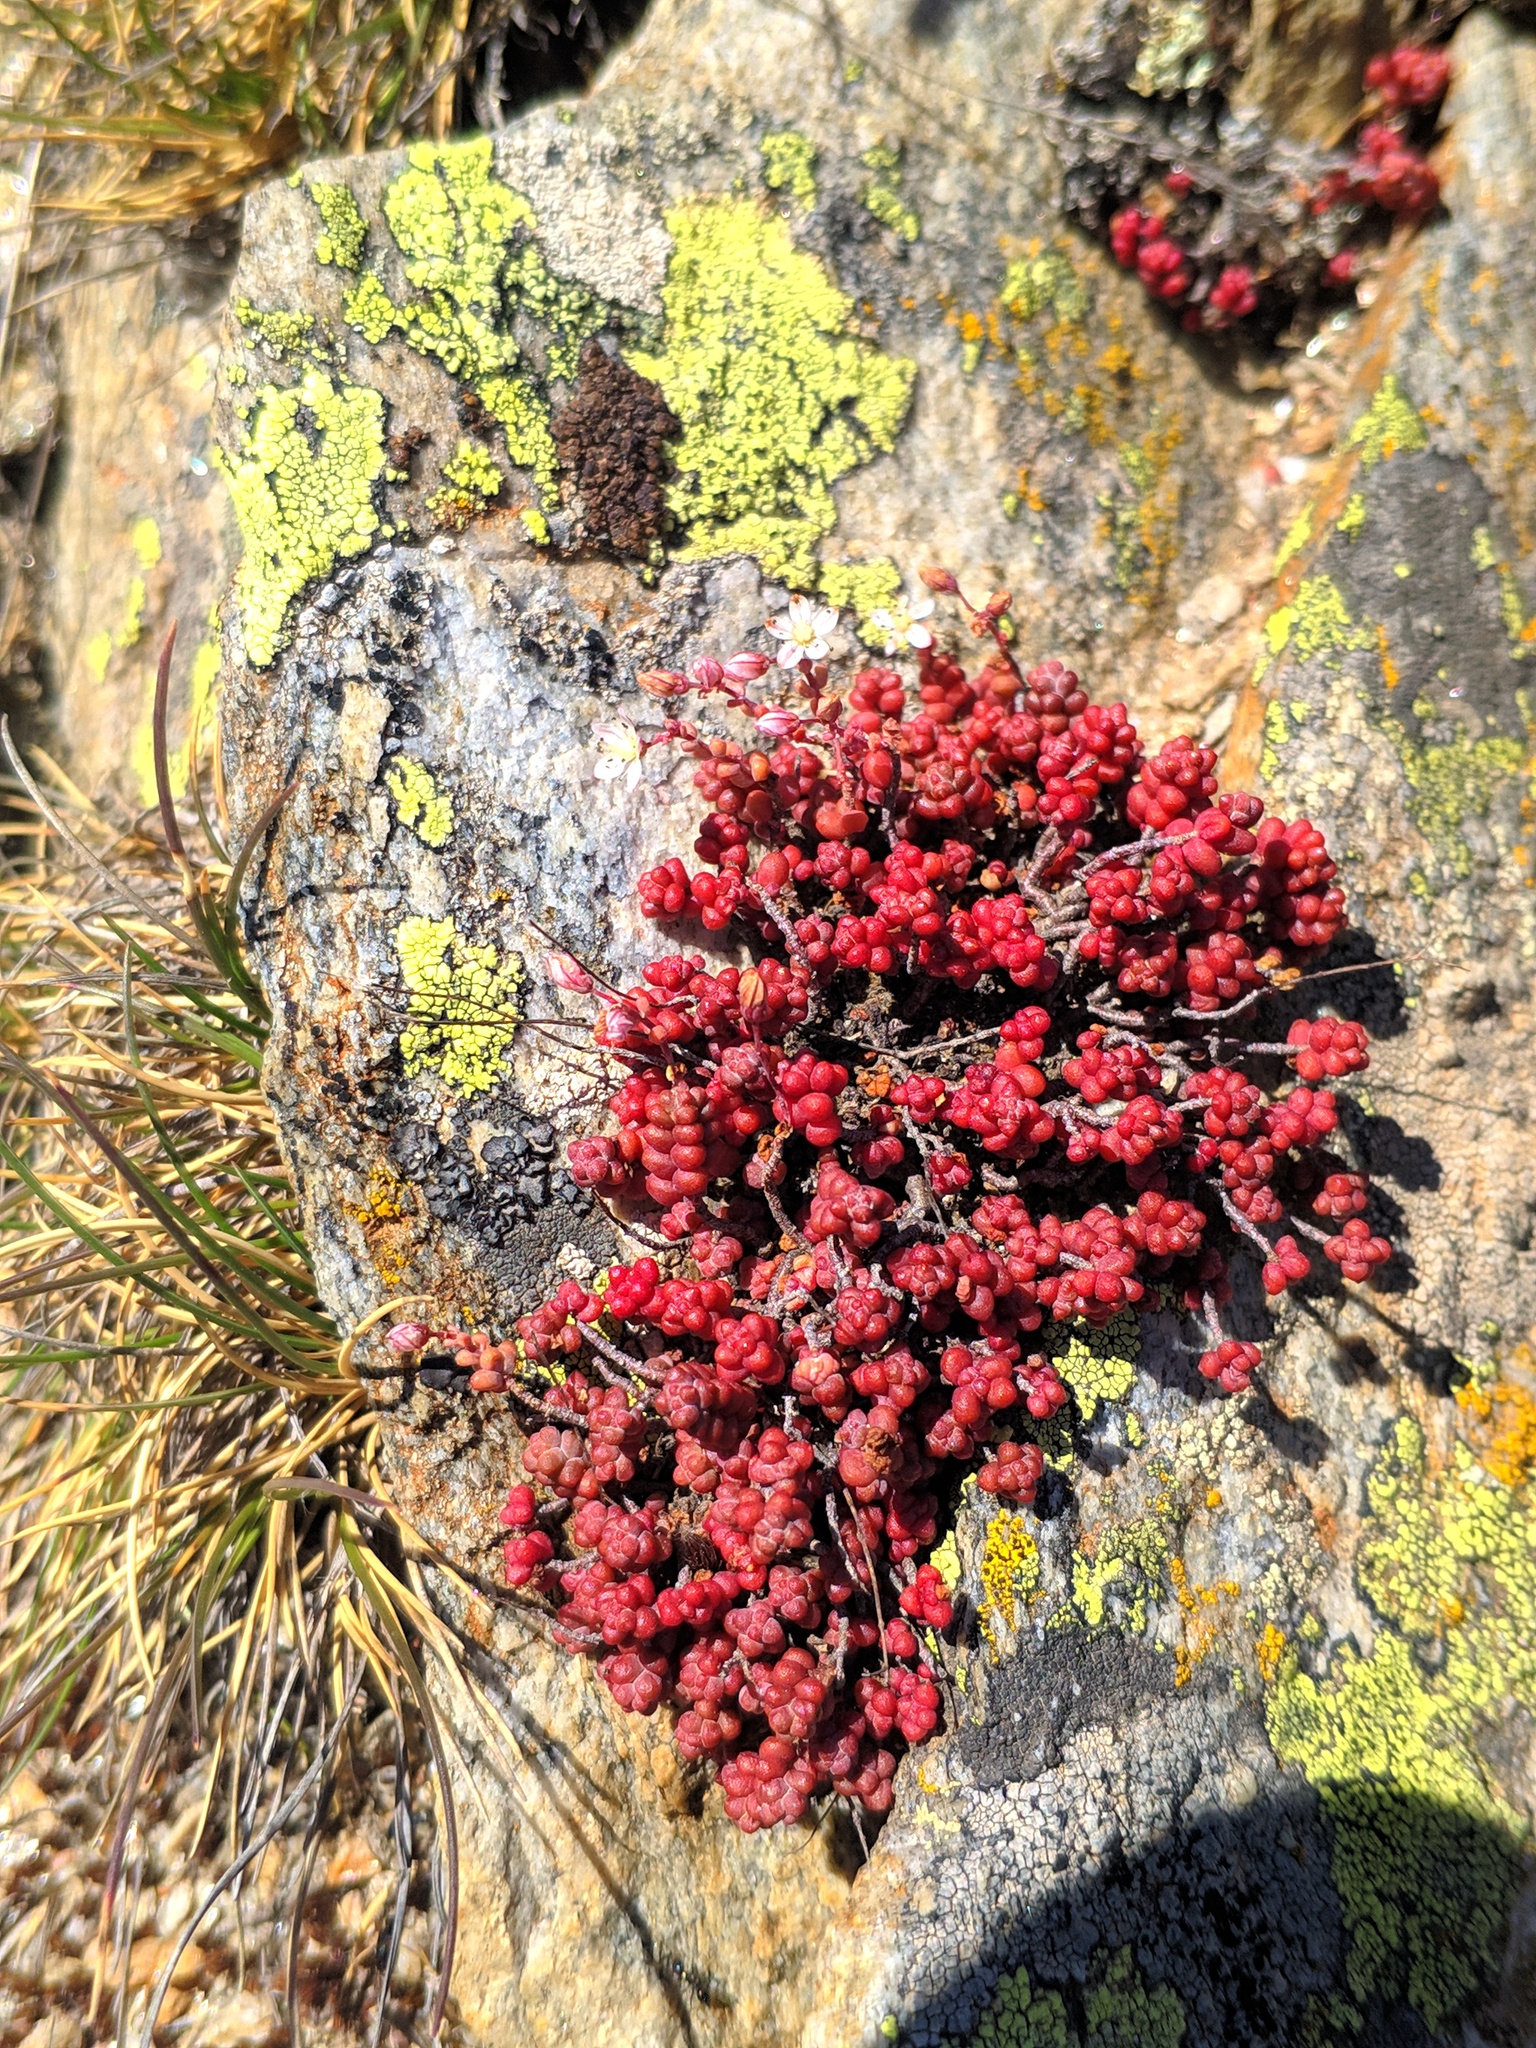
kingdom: Plantae
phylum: Tracheophyta
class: Magnoliopsida
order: Saxifragales
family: Crassulaceae
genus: Sedum
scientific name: Sedum brevifolium
